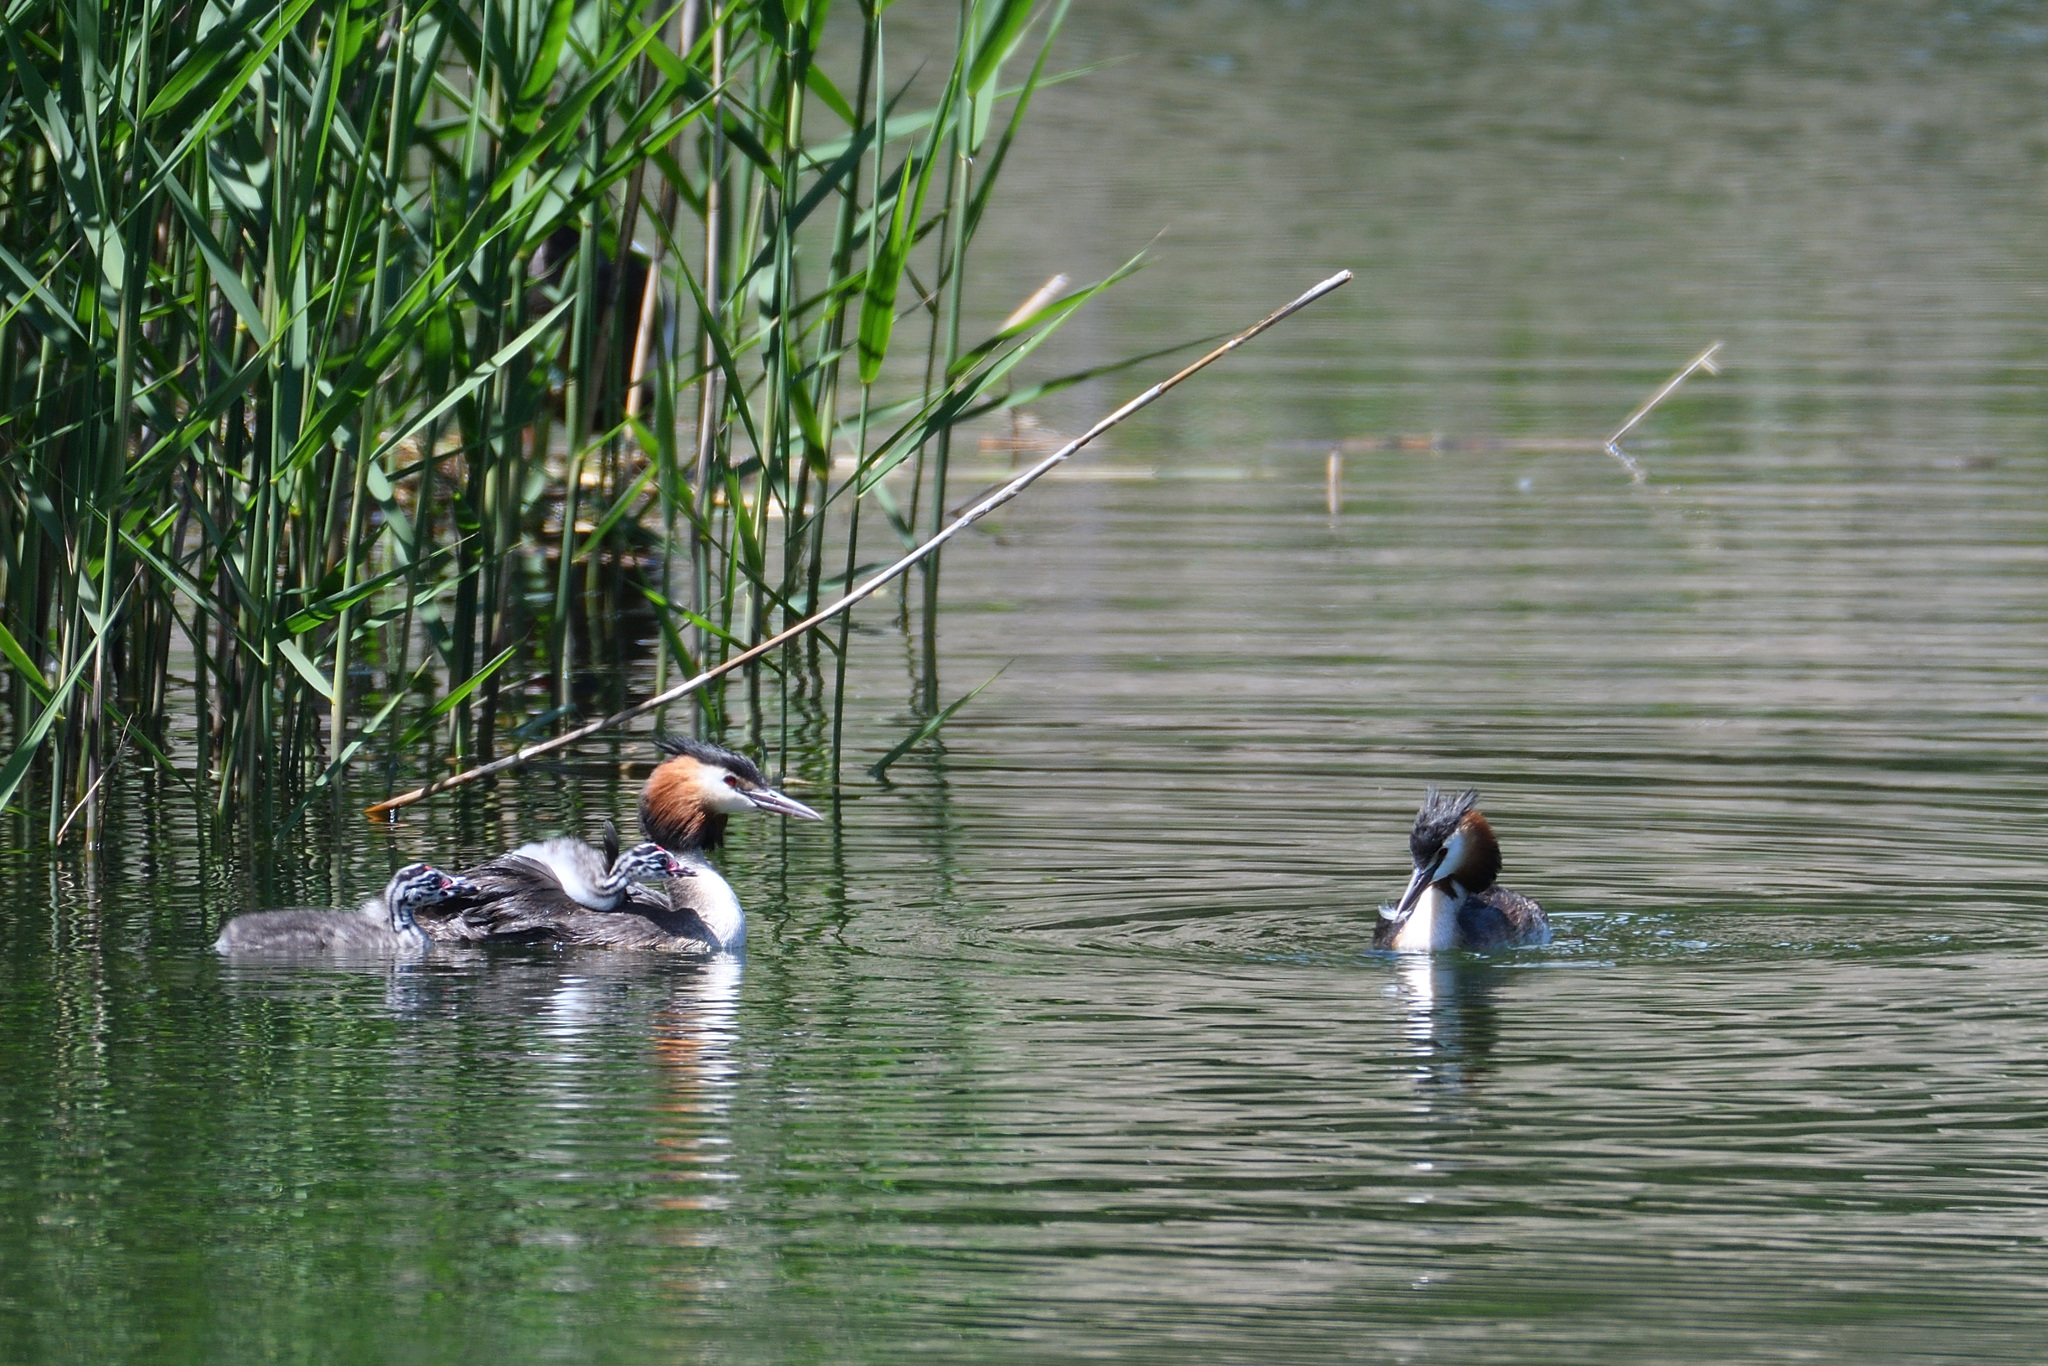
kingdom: Animalia
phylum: Chordata
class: Aves
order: Podicipediformes
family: Podicipedidae
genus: Podiceps
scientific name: Podiceps cristatus
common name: Great crested grebe
